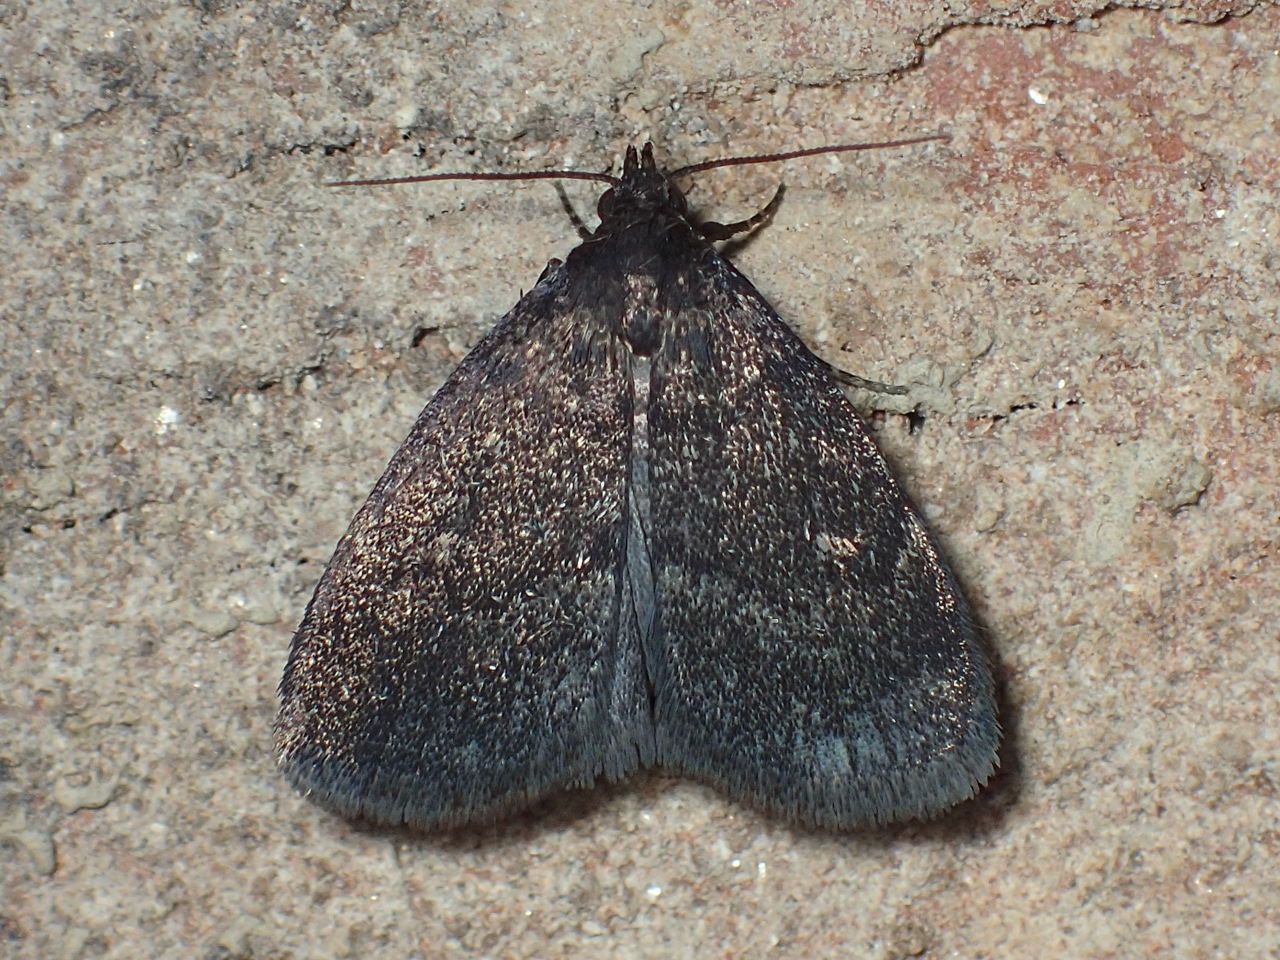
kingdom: Animalia
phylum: Arthropoda
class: Insecta
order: Lepidoptera
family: Erebidae
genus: Idia
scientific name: Idia rotundalis
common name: Rotund idia moth
